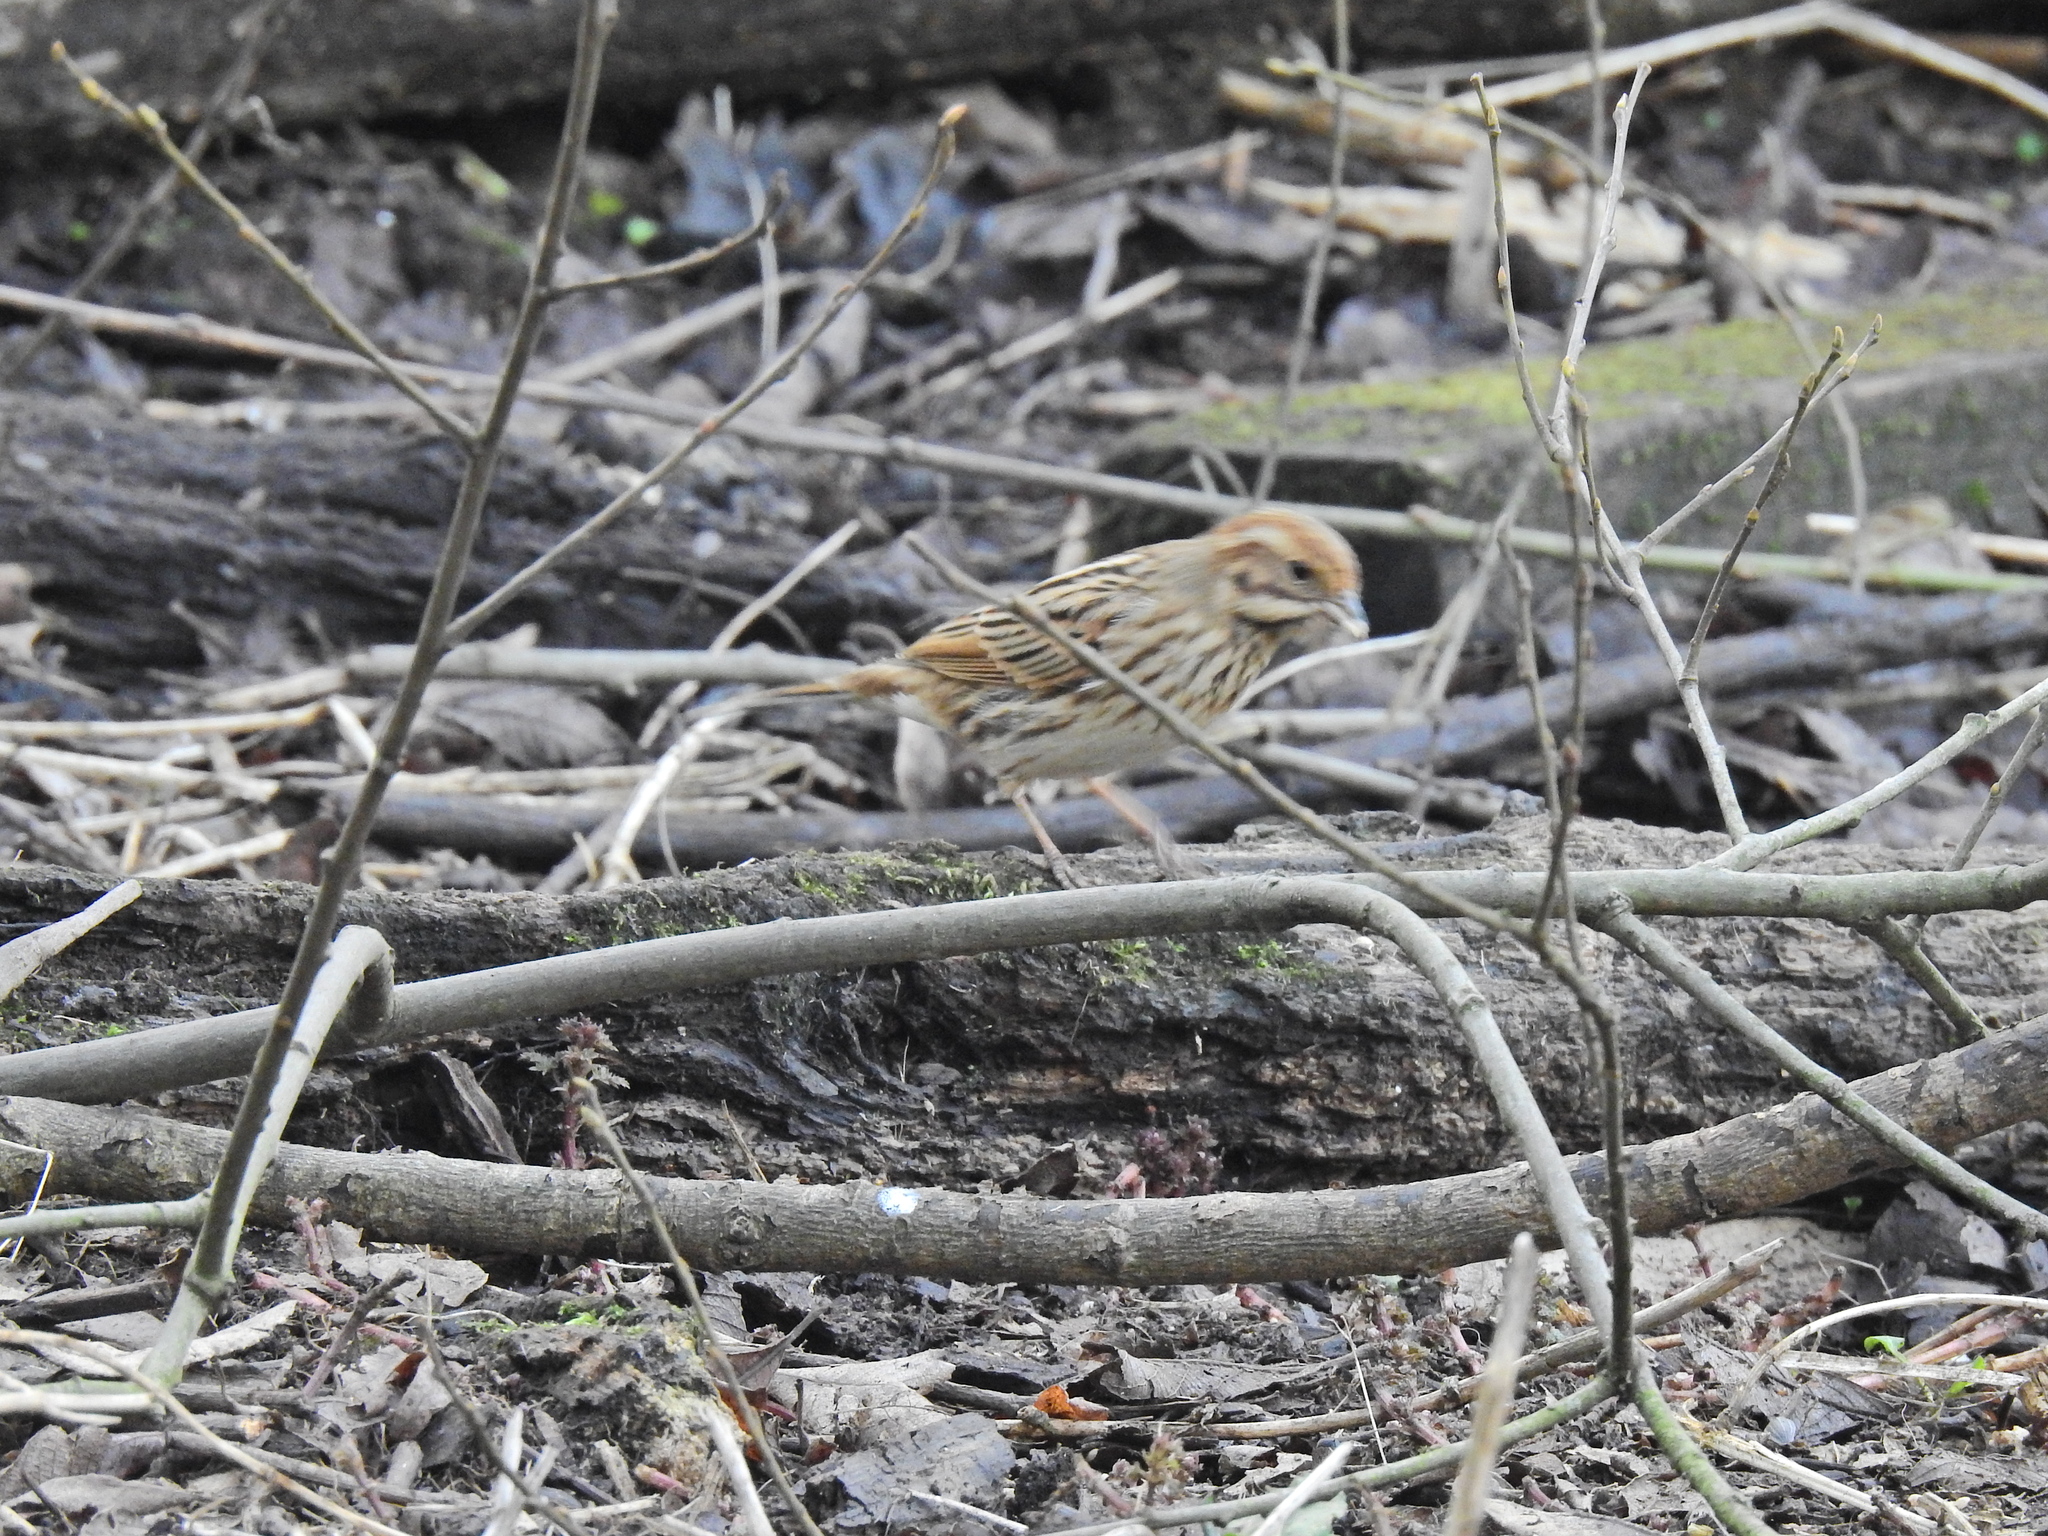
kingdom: Animalia
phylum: Chordata
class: Aves
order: Passeriformes
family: Emberizidae
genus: Emberiza
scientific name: Emberiza schoeniclus
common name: Reed bunting
